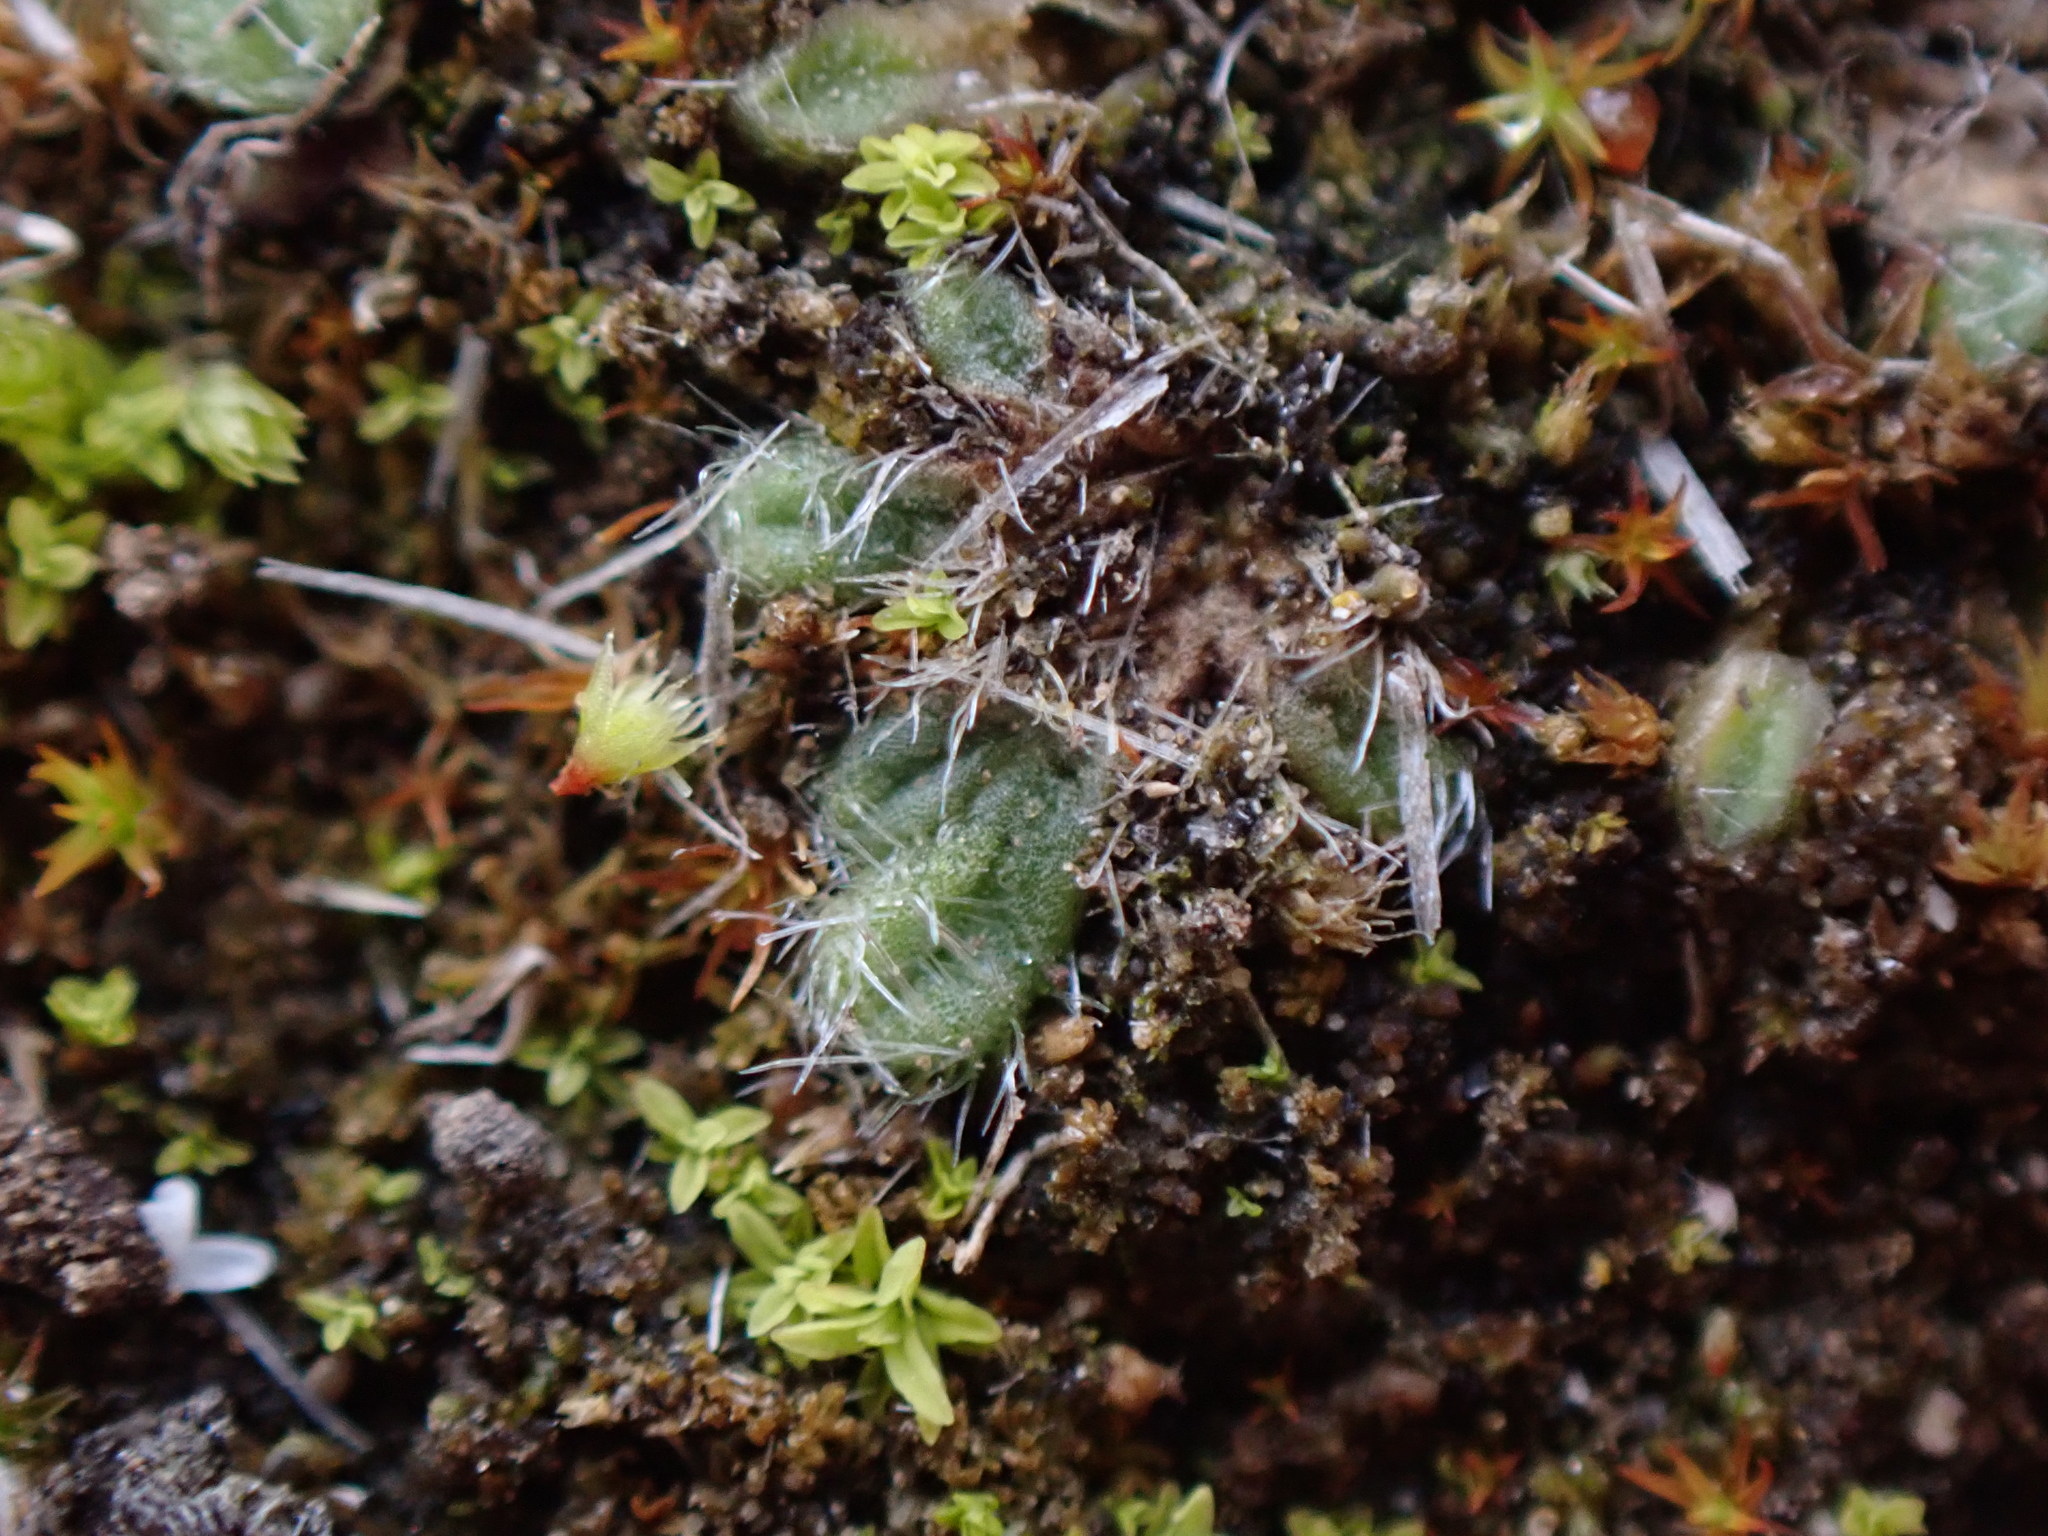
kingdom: Plantae
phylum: Marchantiophyta
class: Marchantiopsida
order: Marchantiales
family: Ricciaceae
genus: Riccia
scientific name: Riccia trichocarpa
